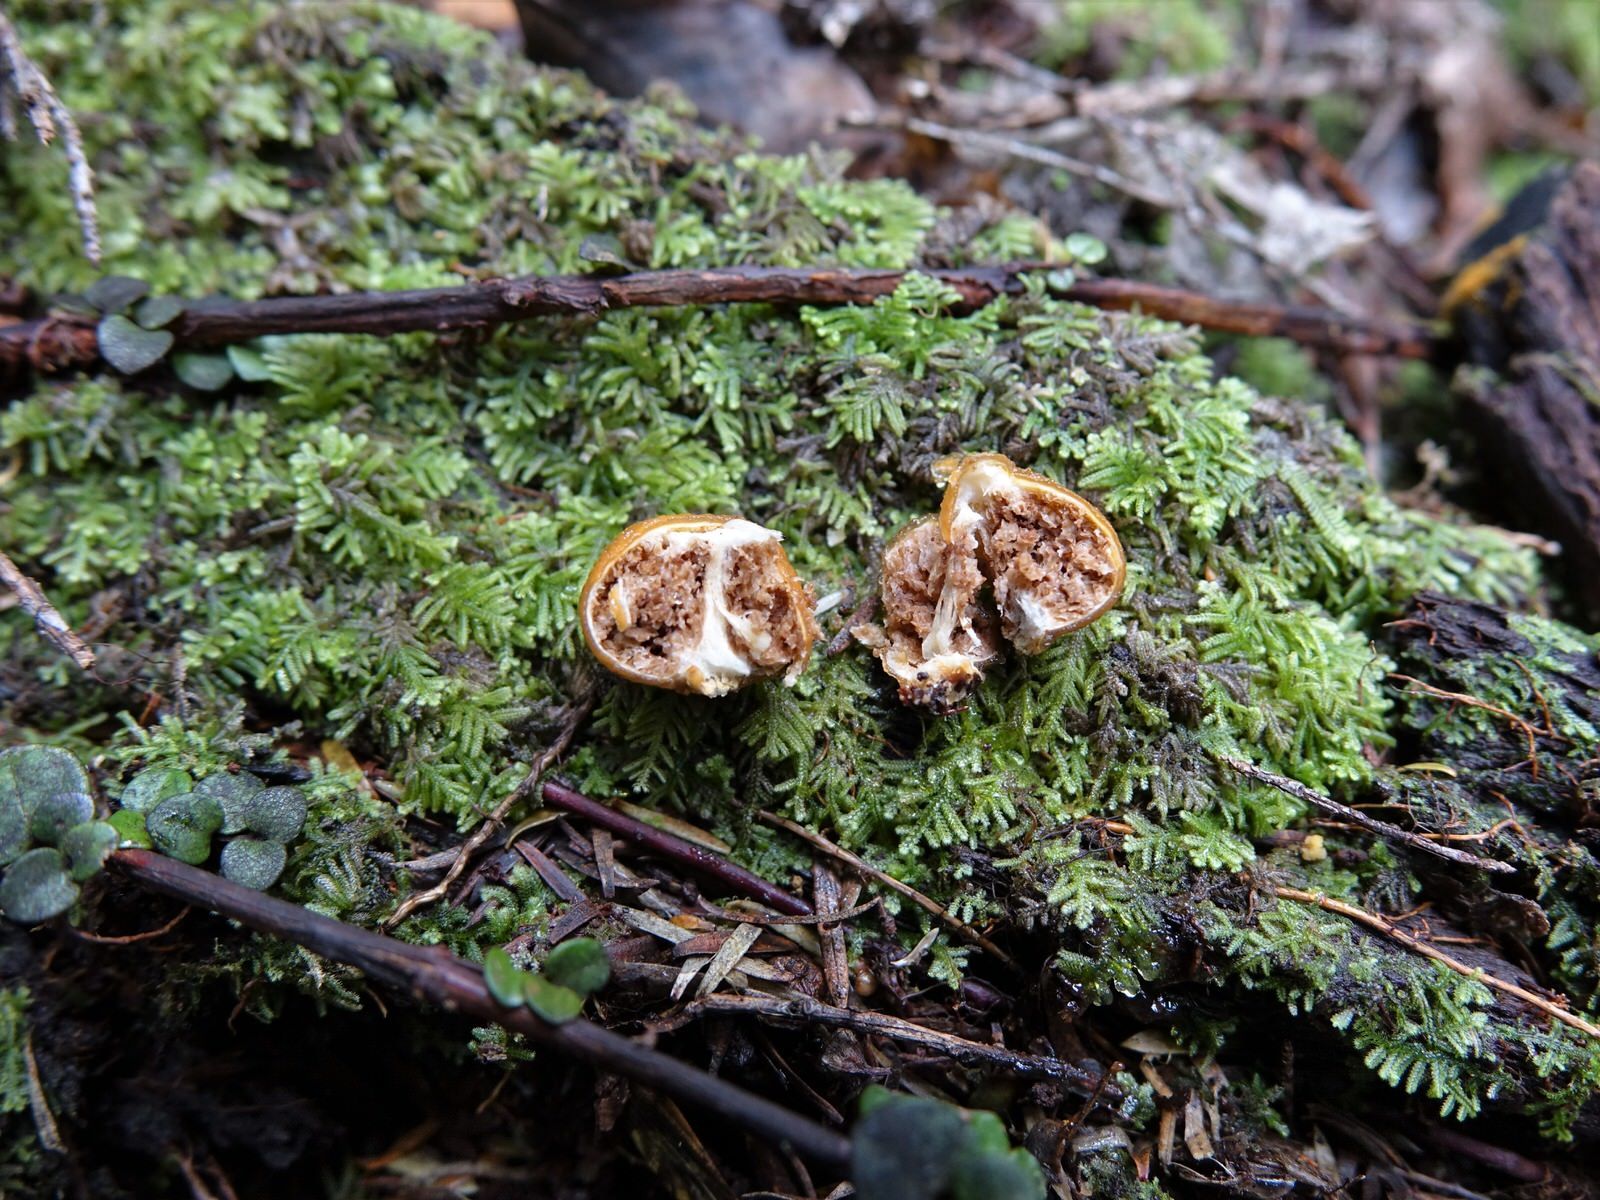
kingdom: Fungi
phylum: Basidiomycota
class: Agaricomycetes
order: Agaricales
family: Cortinariaceae
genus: Cortinarius
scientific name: Cortinarius peraurantiacus
